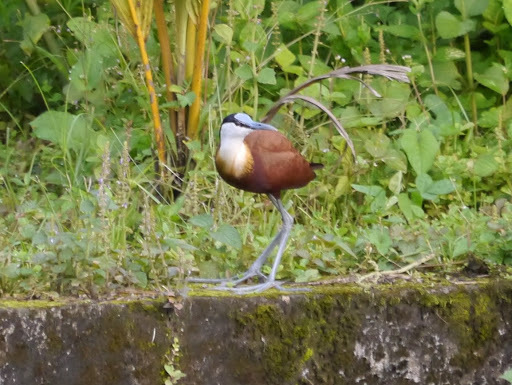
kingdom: Animalia
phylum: Chordata
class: Aves
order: Charadriiformes
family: Jacanidae
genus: Actophilornis
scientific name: Actophilornis africanus
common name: African jacana
